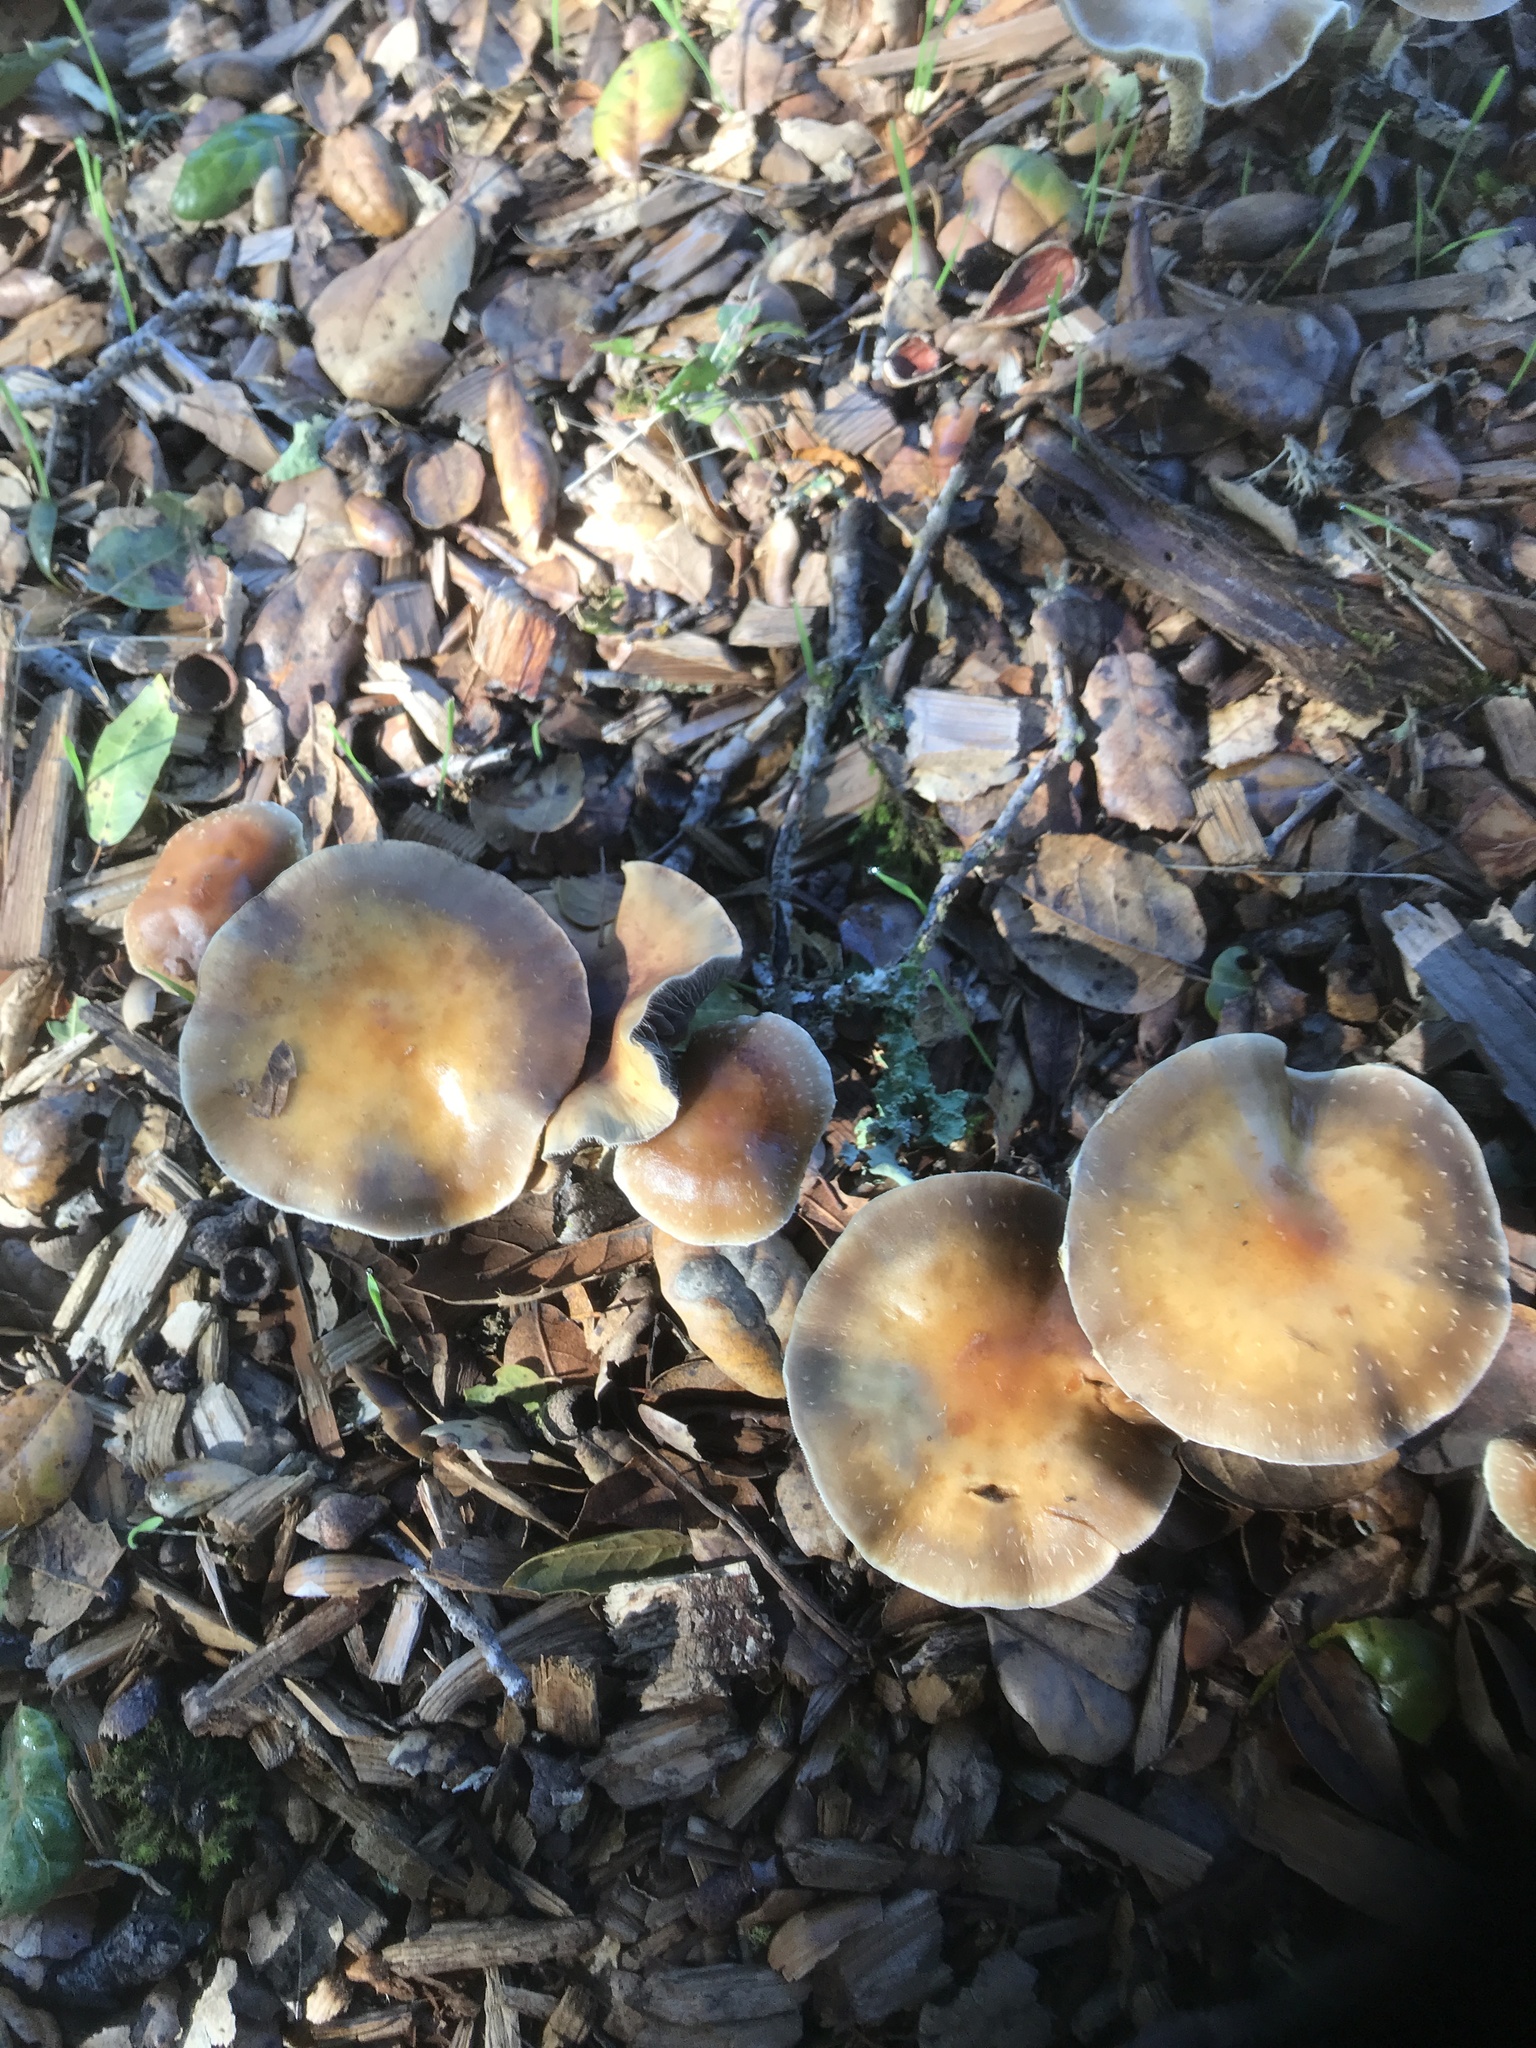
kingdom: Fungi
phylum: Basidiomycota
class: Agaricomycetes
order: Agaricales
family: Strophariaceae
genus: Leratiomyces
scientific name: Leratiomyces squamosus
